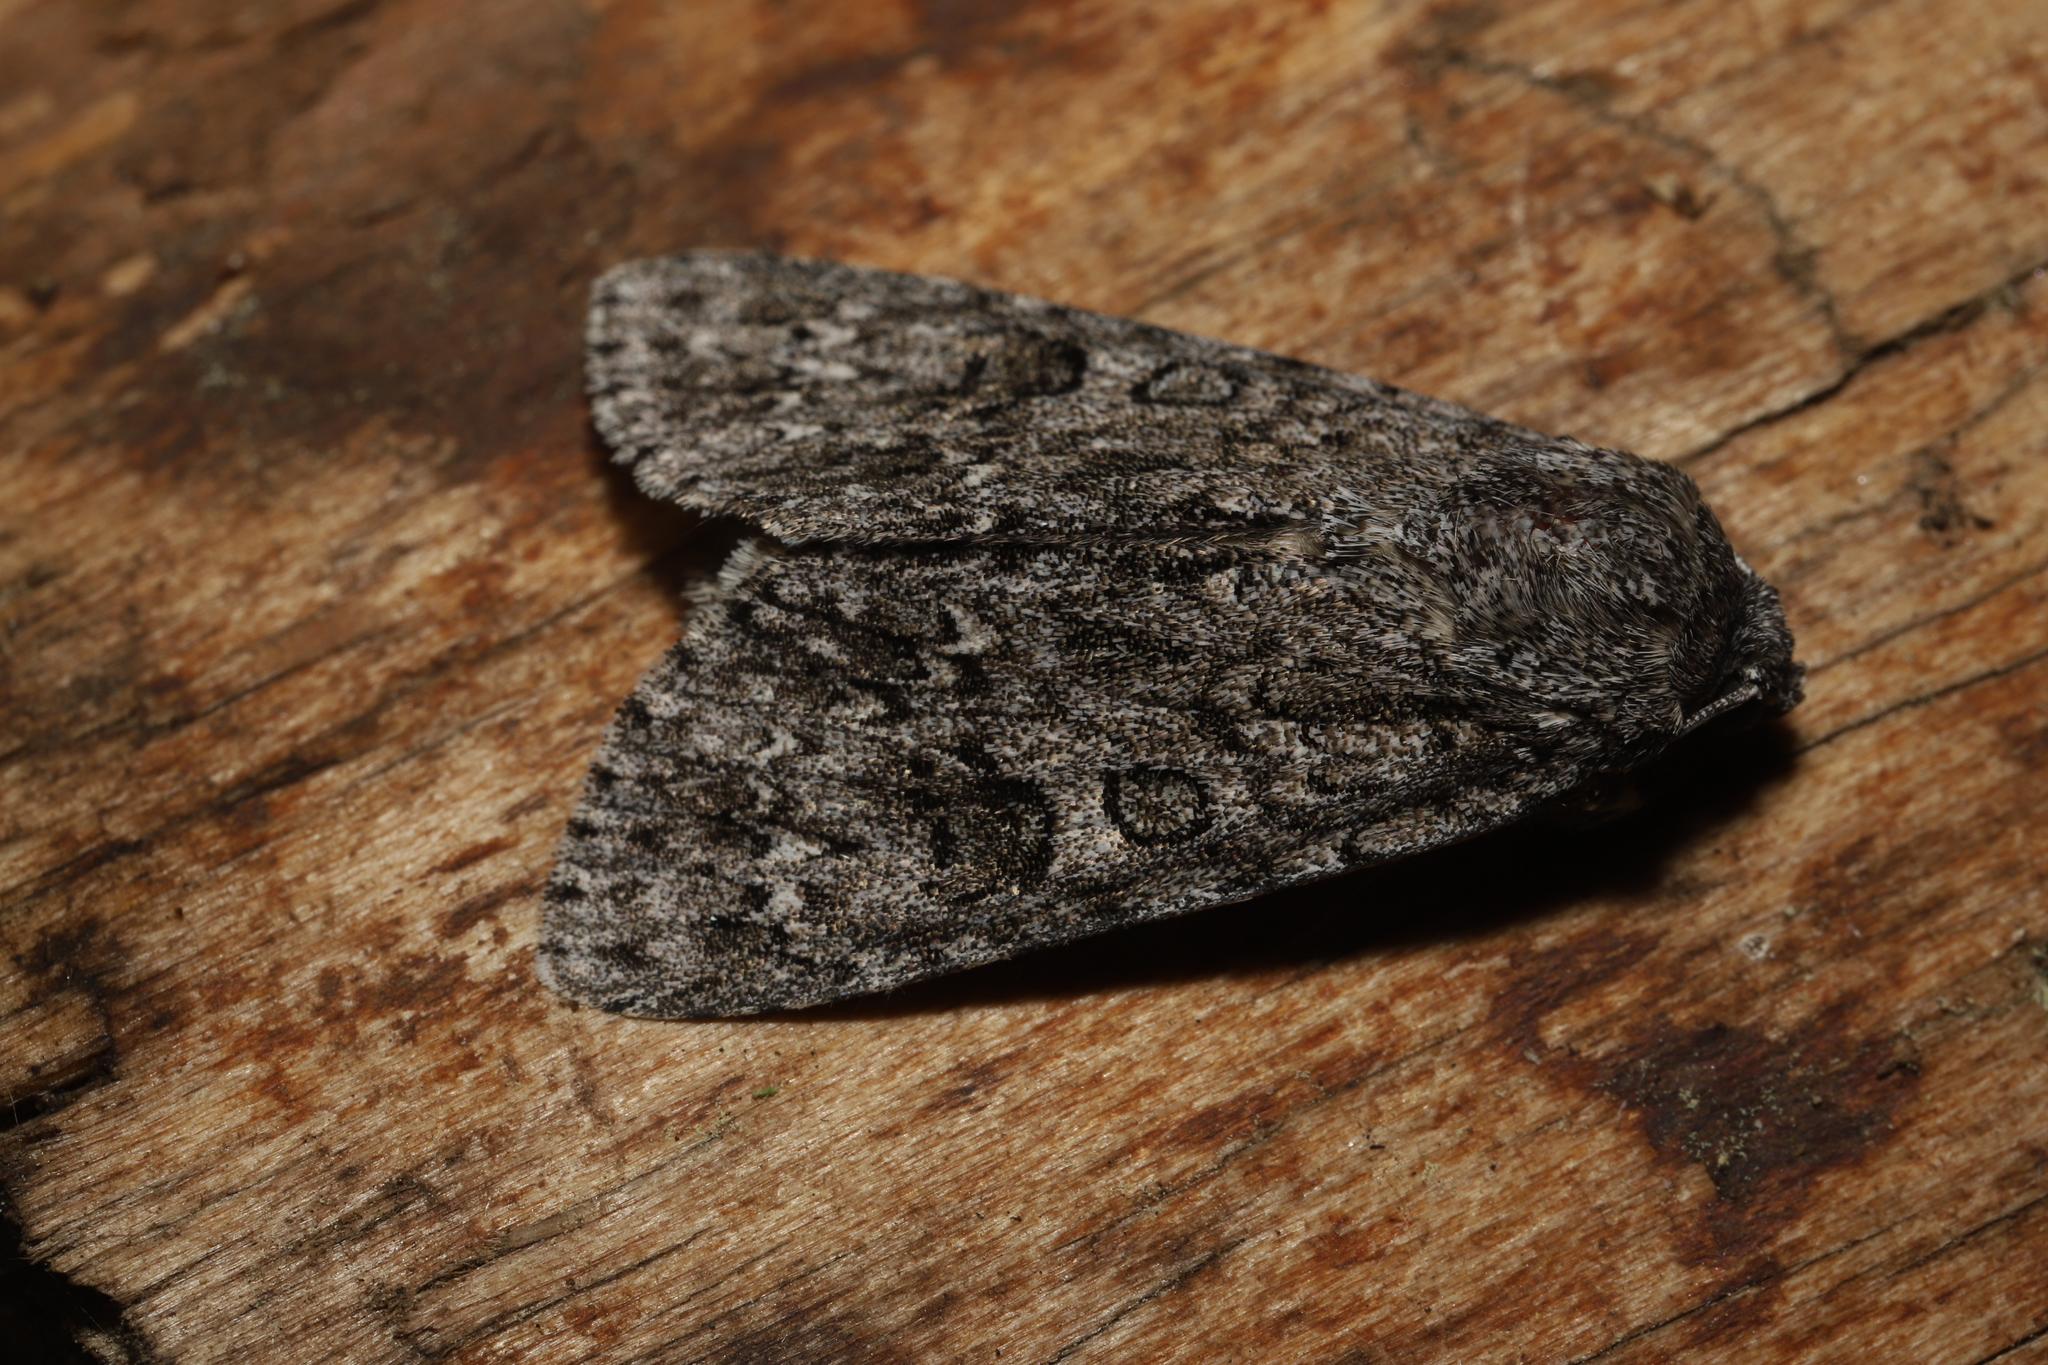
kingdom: Animalia
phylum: Arthropoda
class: Insecta
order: Lepidoptera
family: Noctuidae
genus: Acronicta
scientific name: Acronicta impleta
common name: Powdered dagger
